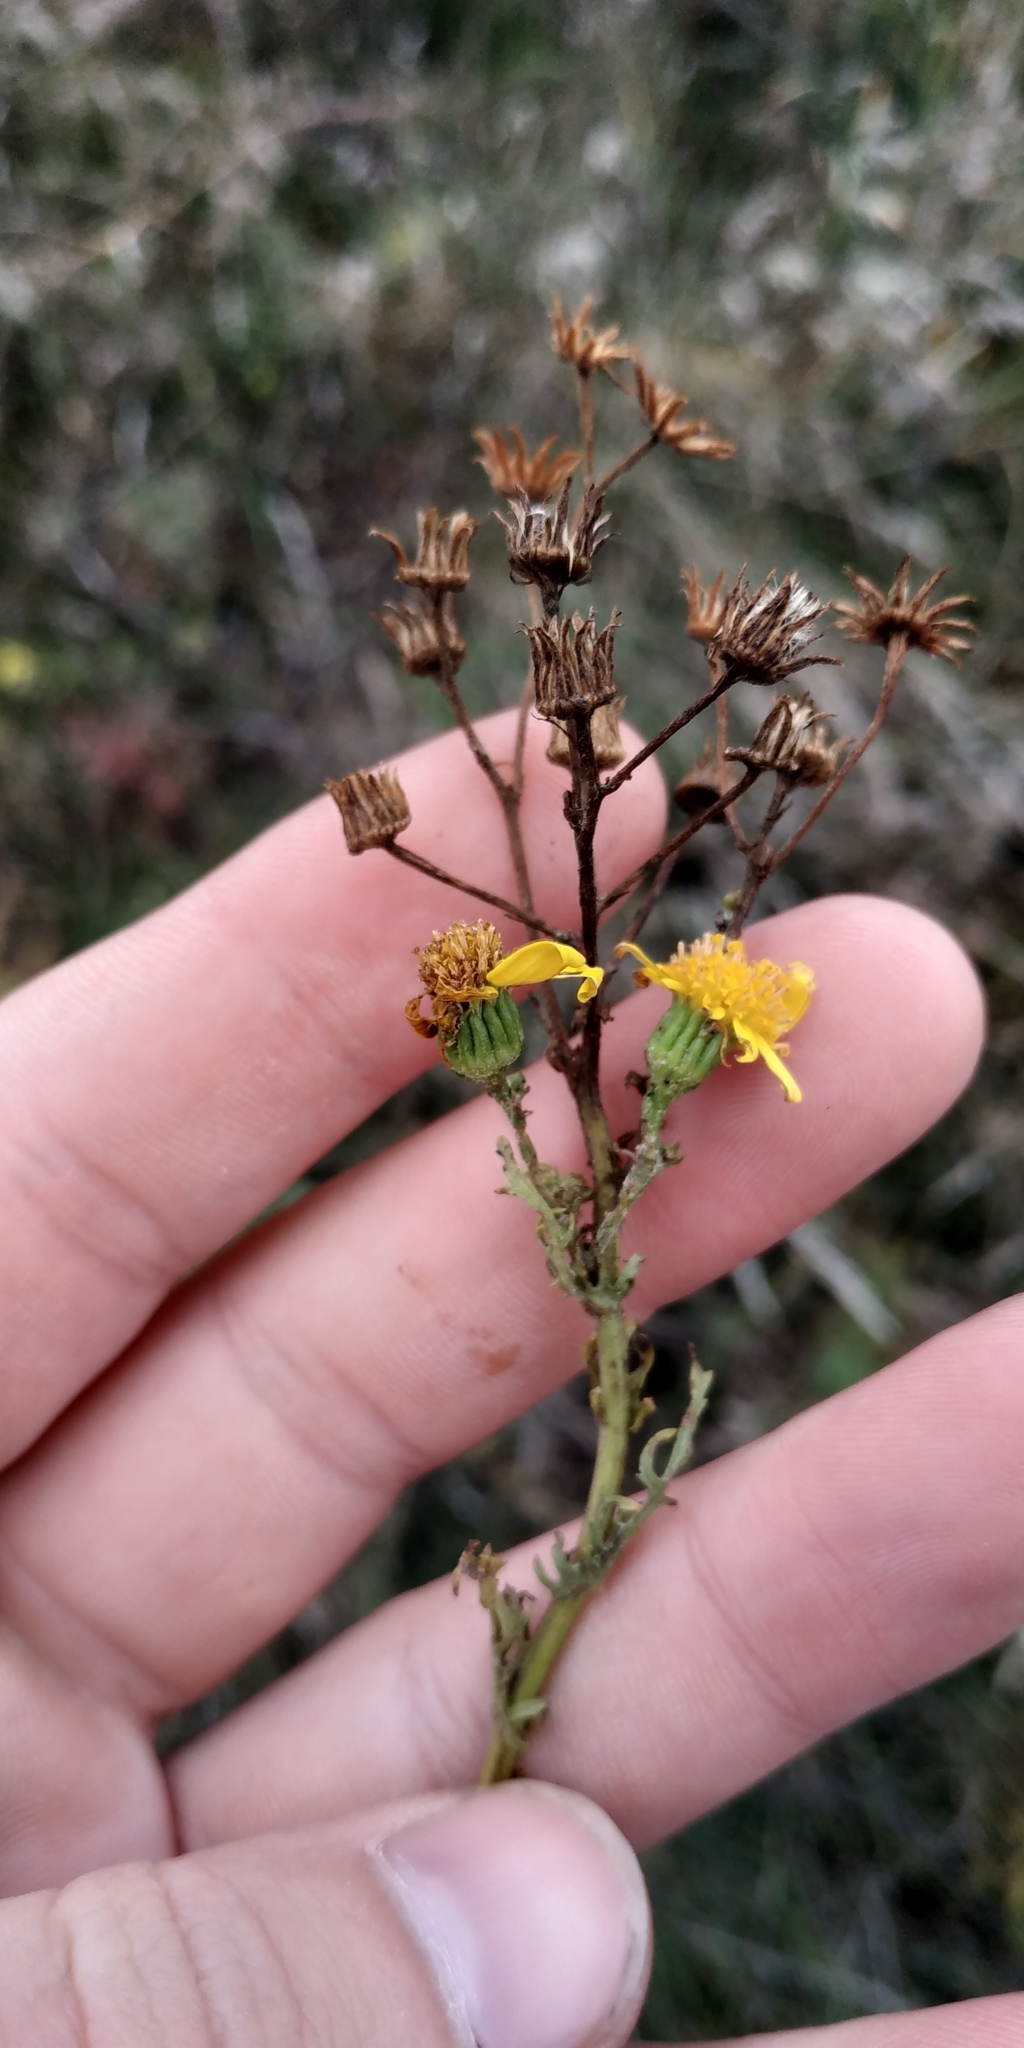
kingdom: Plantae
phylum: Tracheophyta
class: Magnoliopsida
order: Asterales
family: Asteraceae
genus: Jacobaea
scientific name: Jacobaea erucifolia
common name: Hoary ragwort
